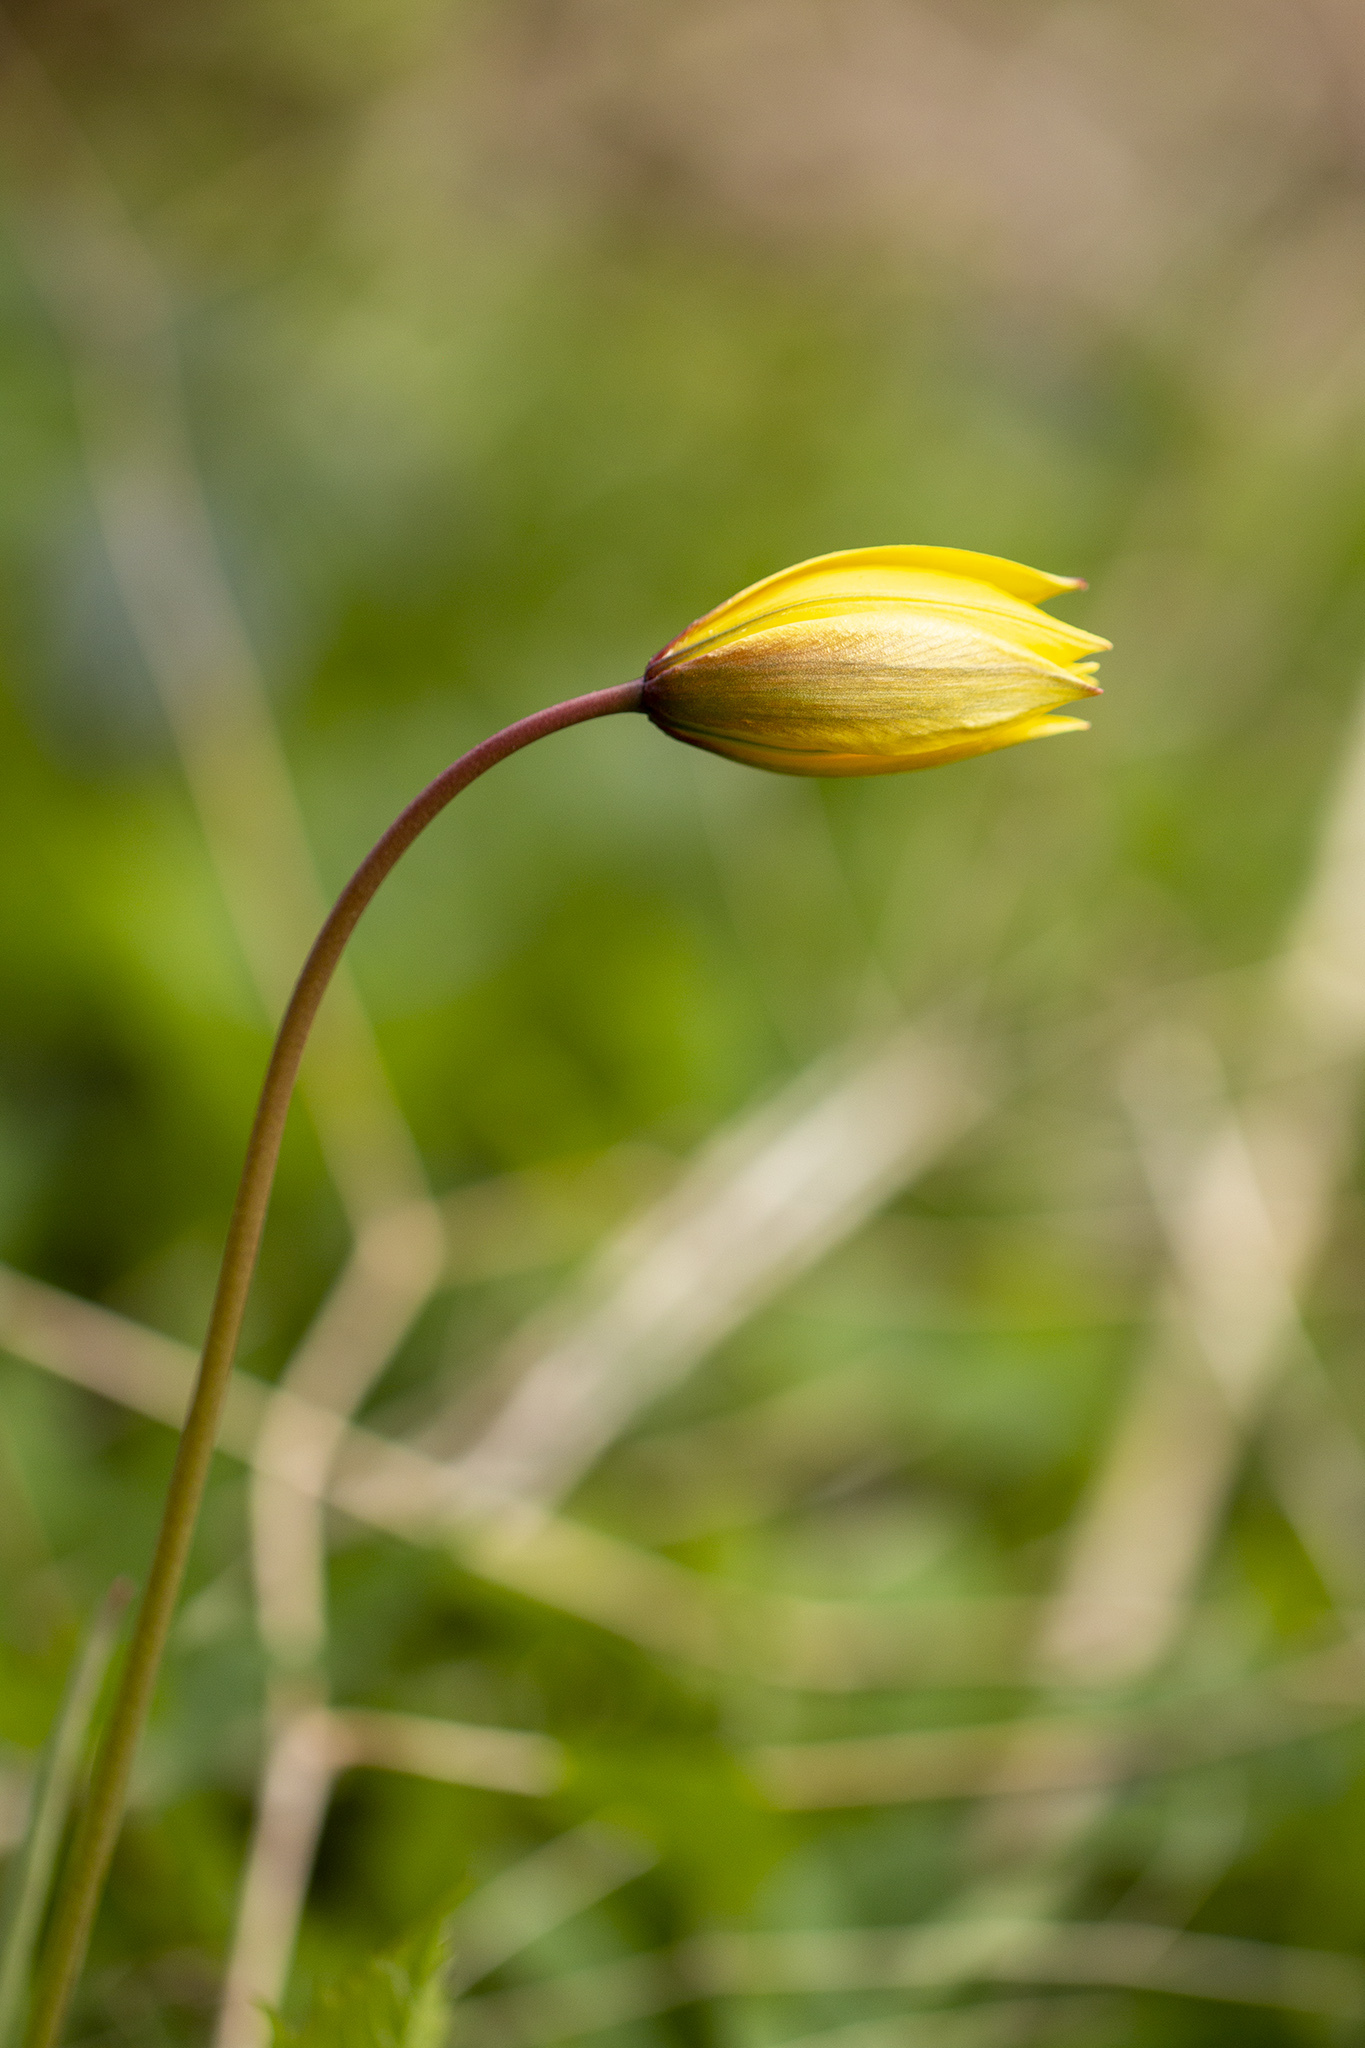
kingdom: Plantae
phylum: Tracheophyta
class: Liliopsida
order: Liliales
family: Liliaceae
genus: Tulipa
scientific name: Tulipa sylvestris
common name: Wild tulip
